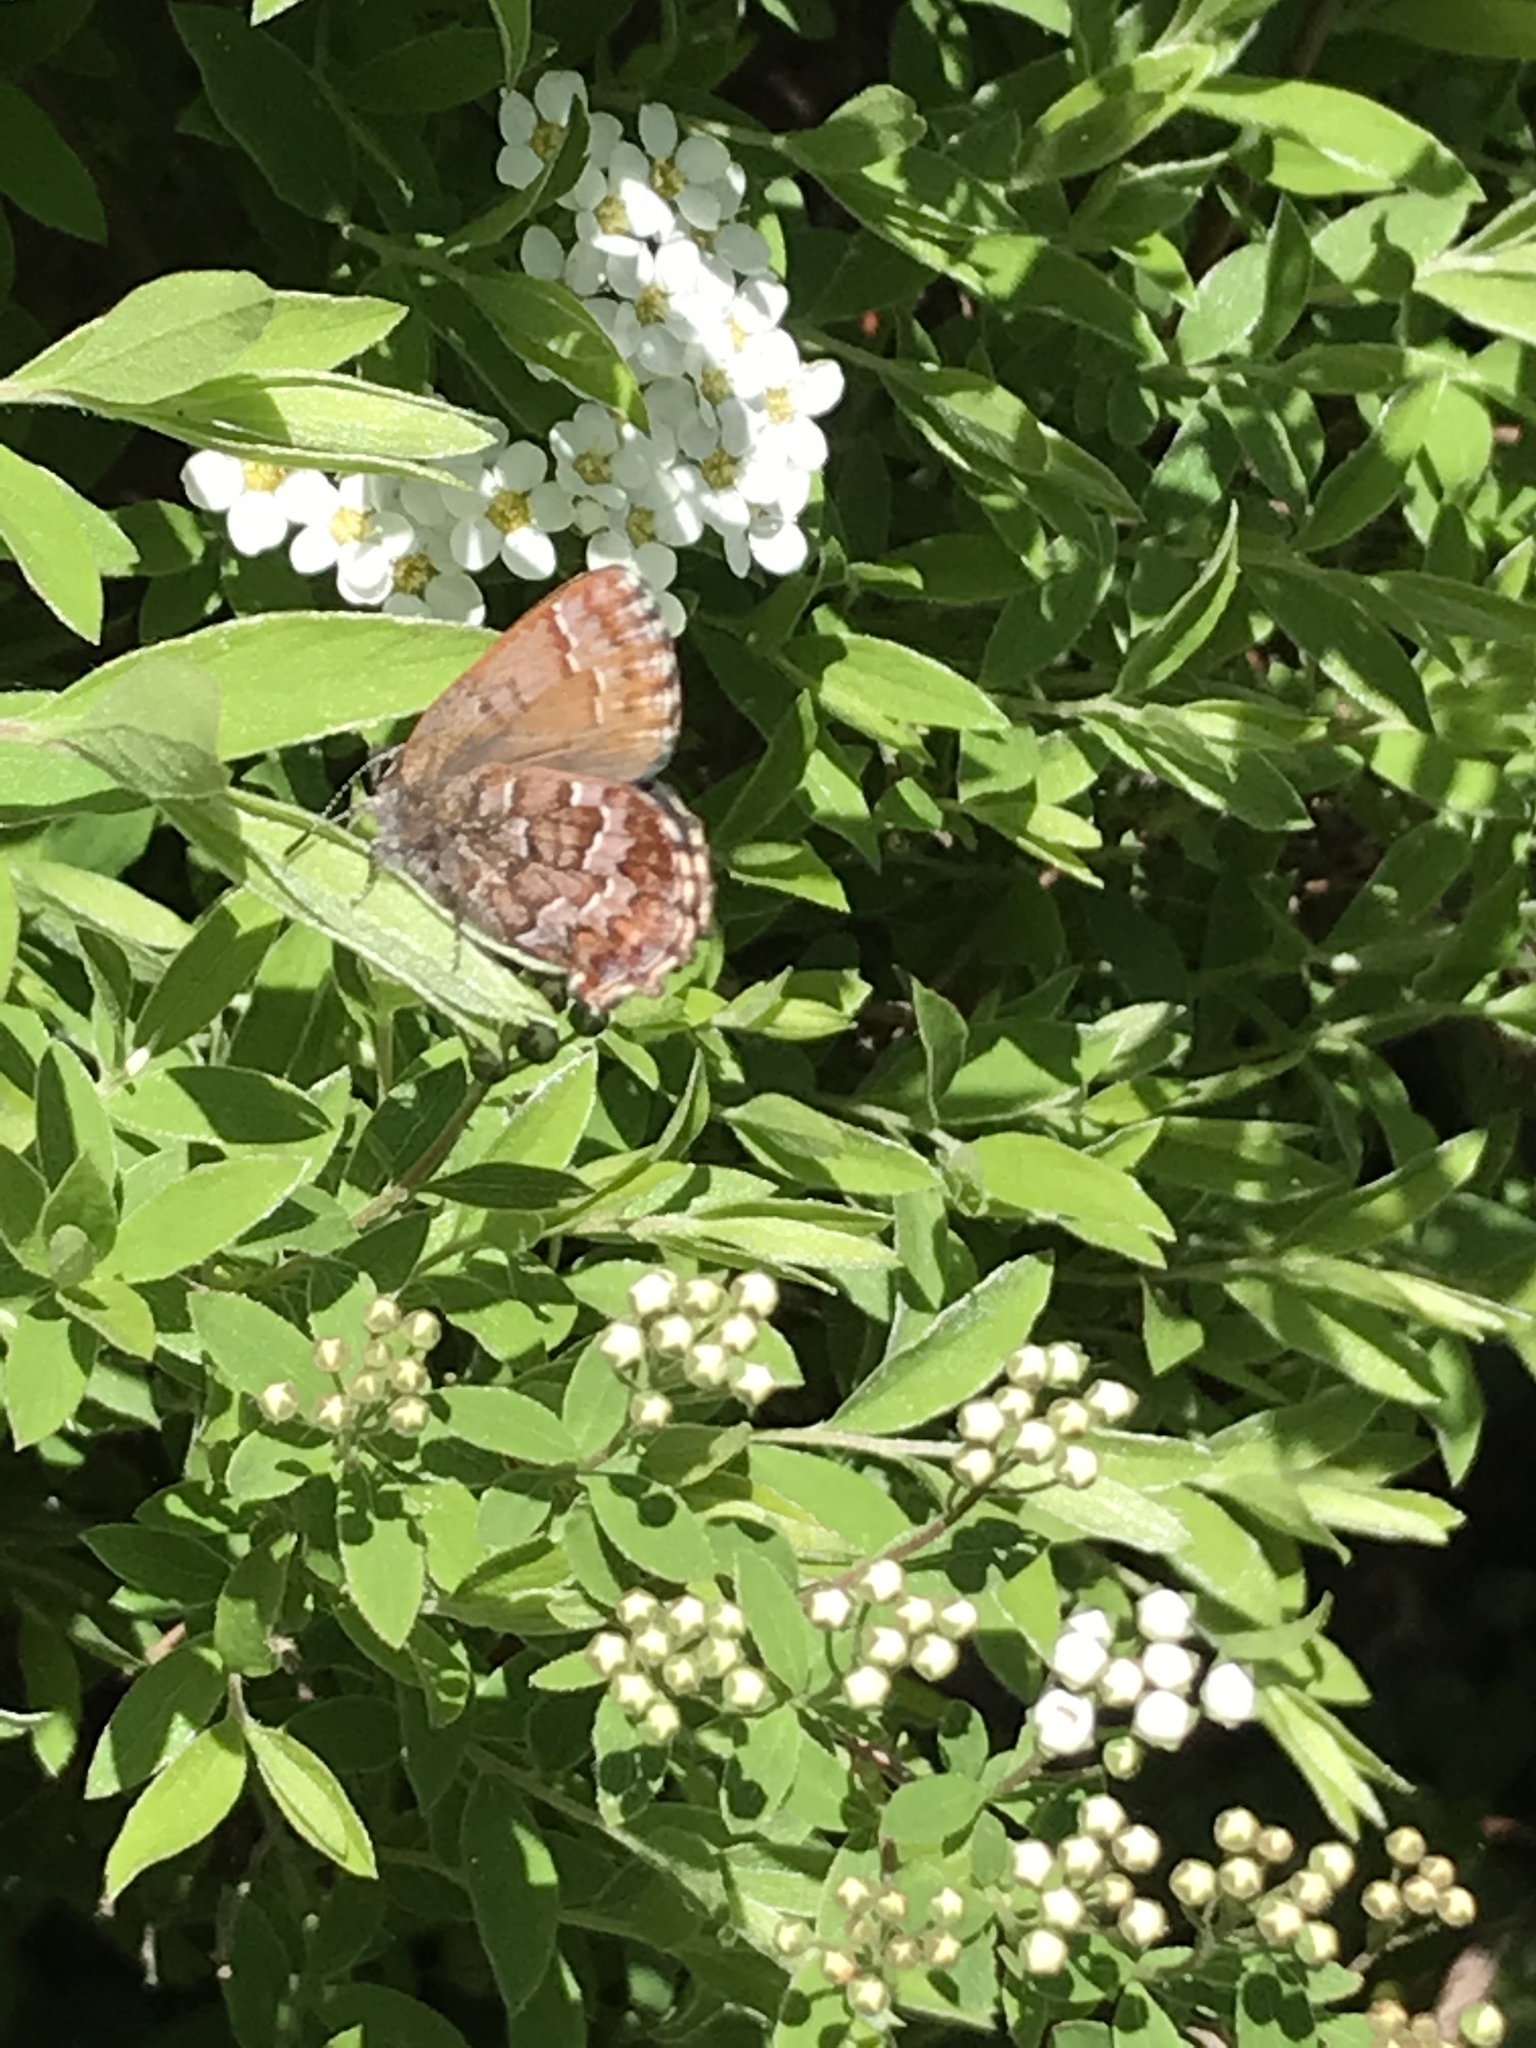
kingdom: Animalia
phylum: Arthropoda
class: Insecta
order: Lepidoptera
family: Lycaenidae
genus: Incisalia
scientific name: Incisalia niphon
